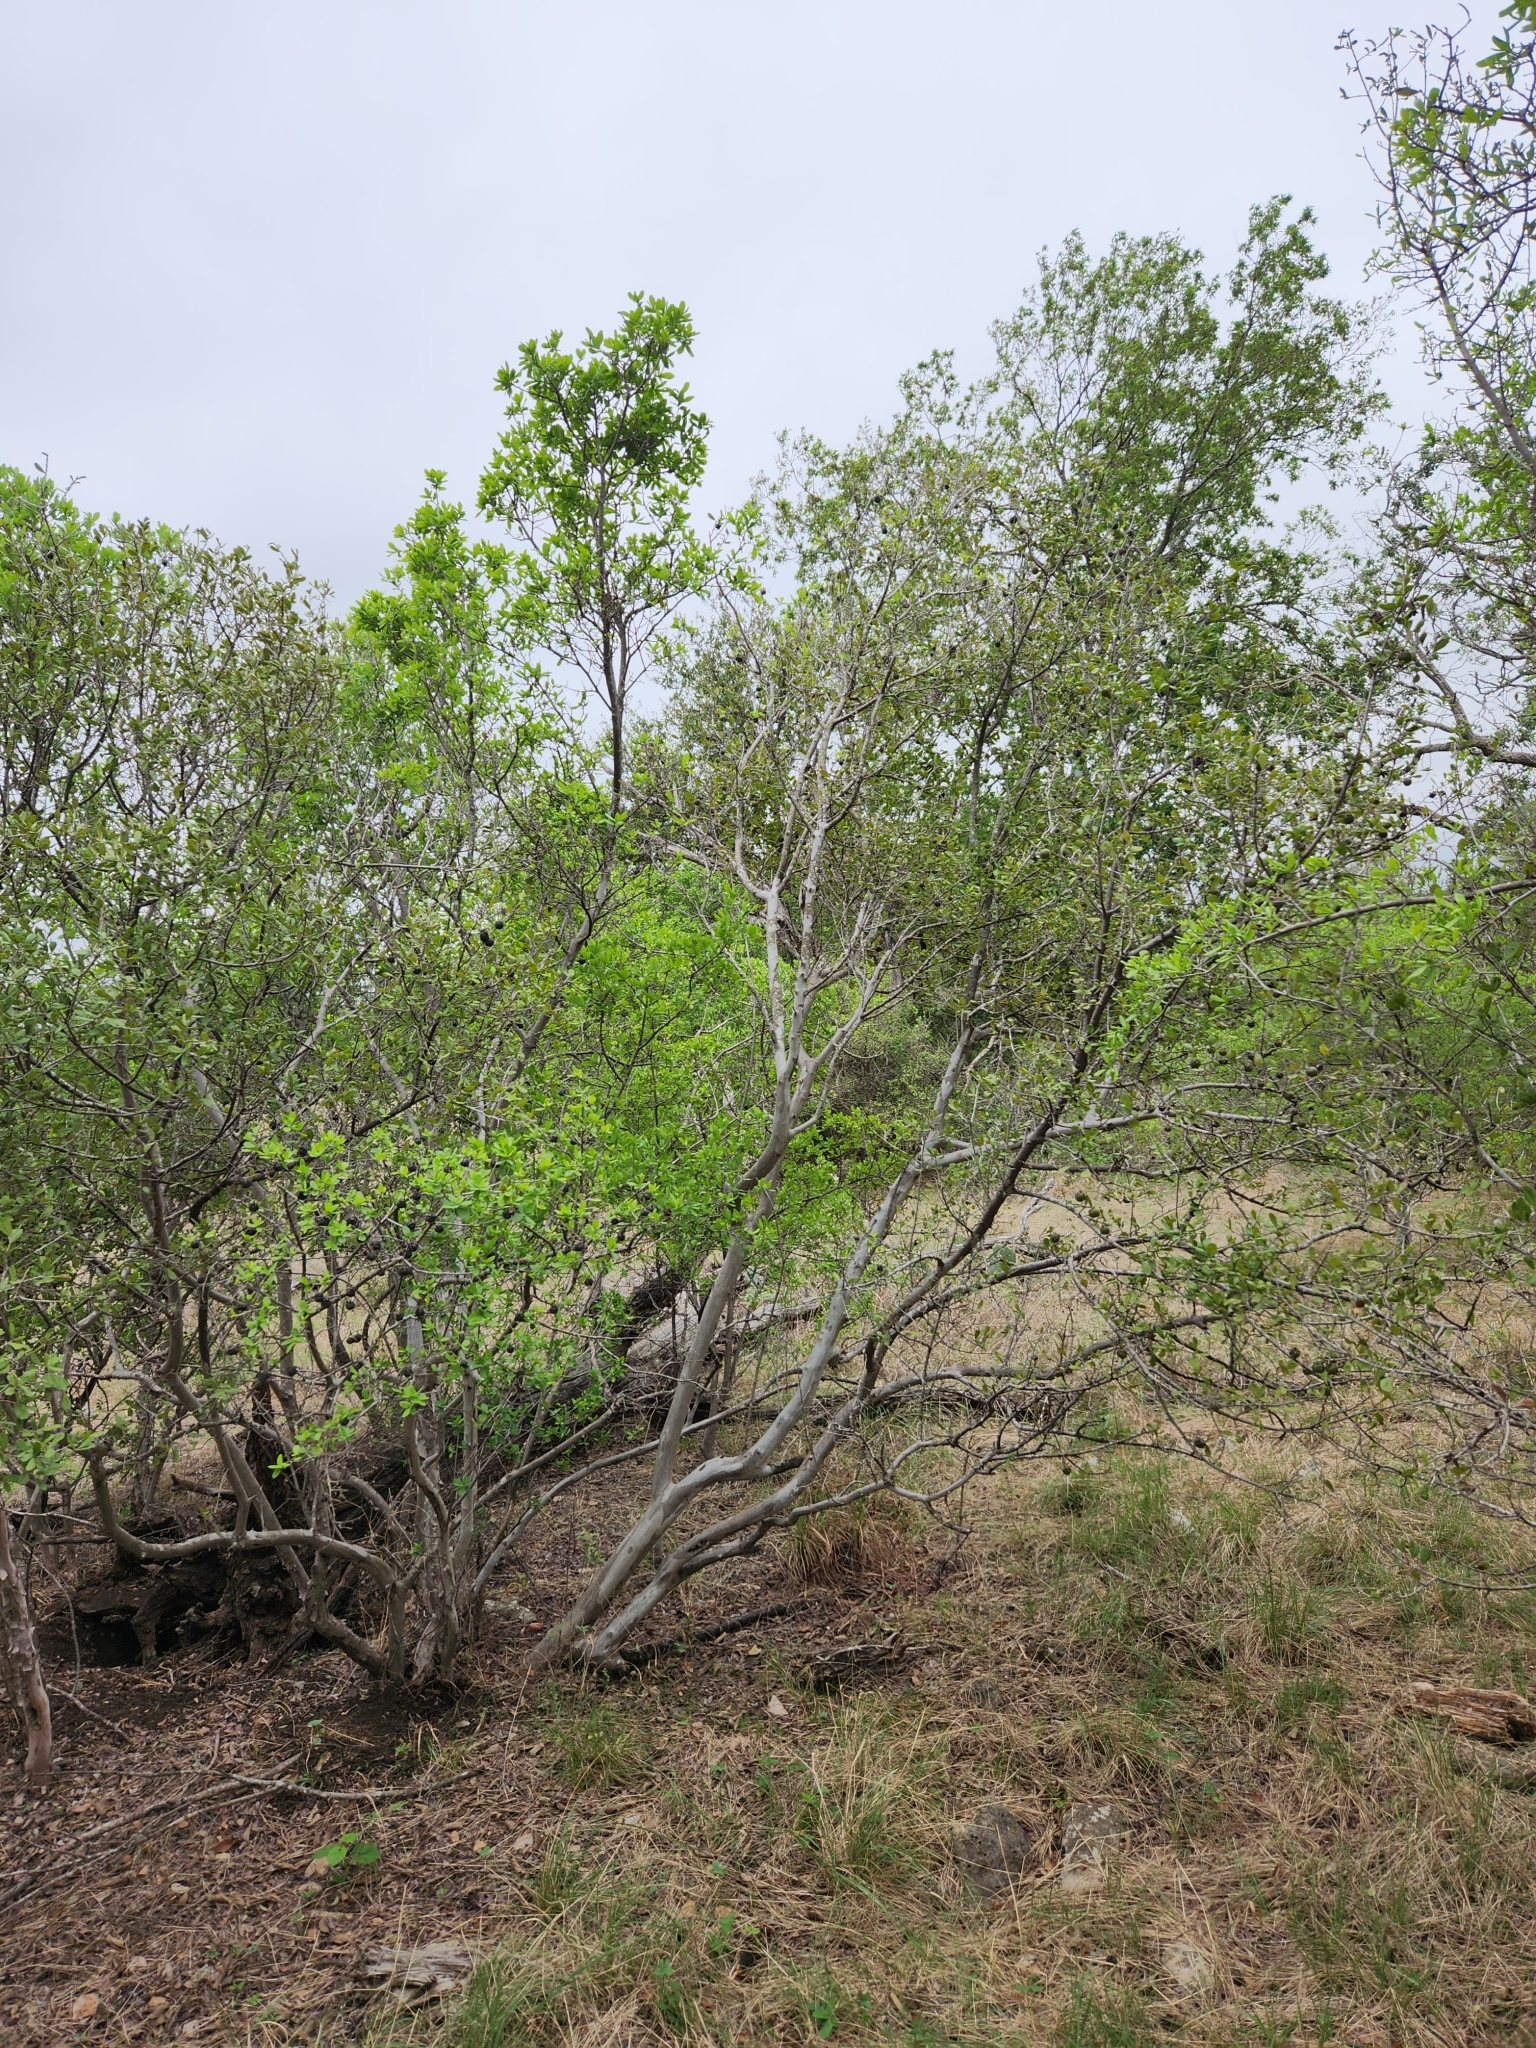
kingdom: Plantae
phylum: Tracheophyta
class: Magnoliopsida
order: Ericales
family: Ebenaceae
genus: Diospyros
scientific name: Diospyros texana
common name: Texas persimmon
